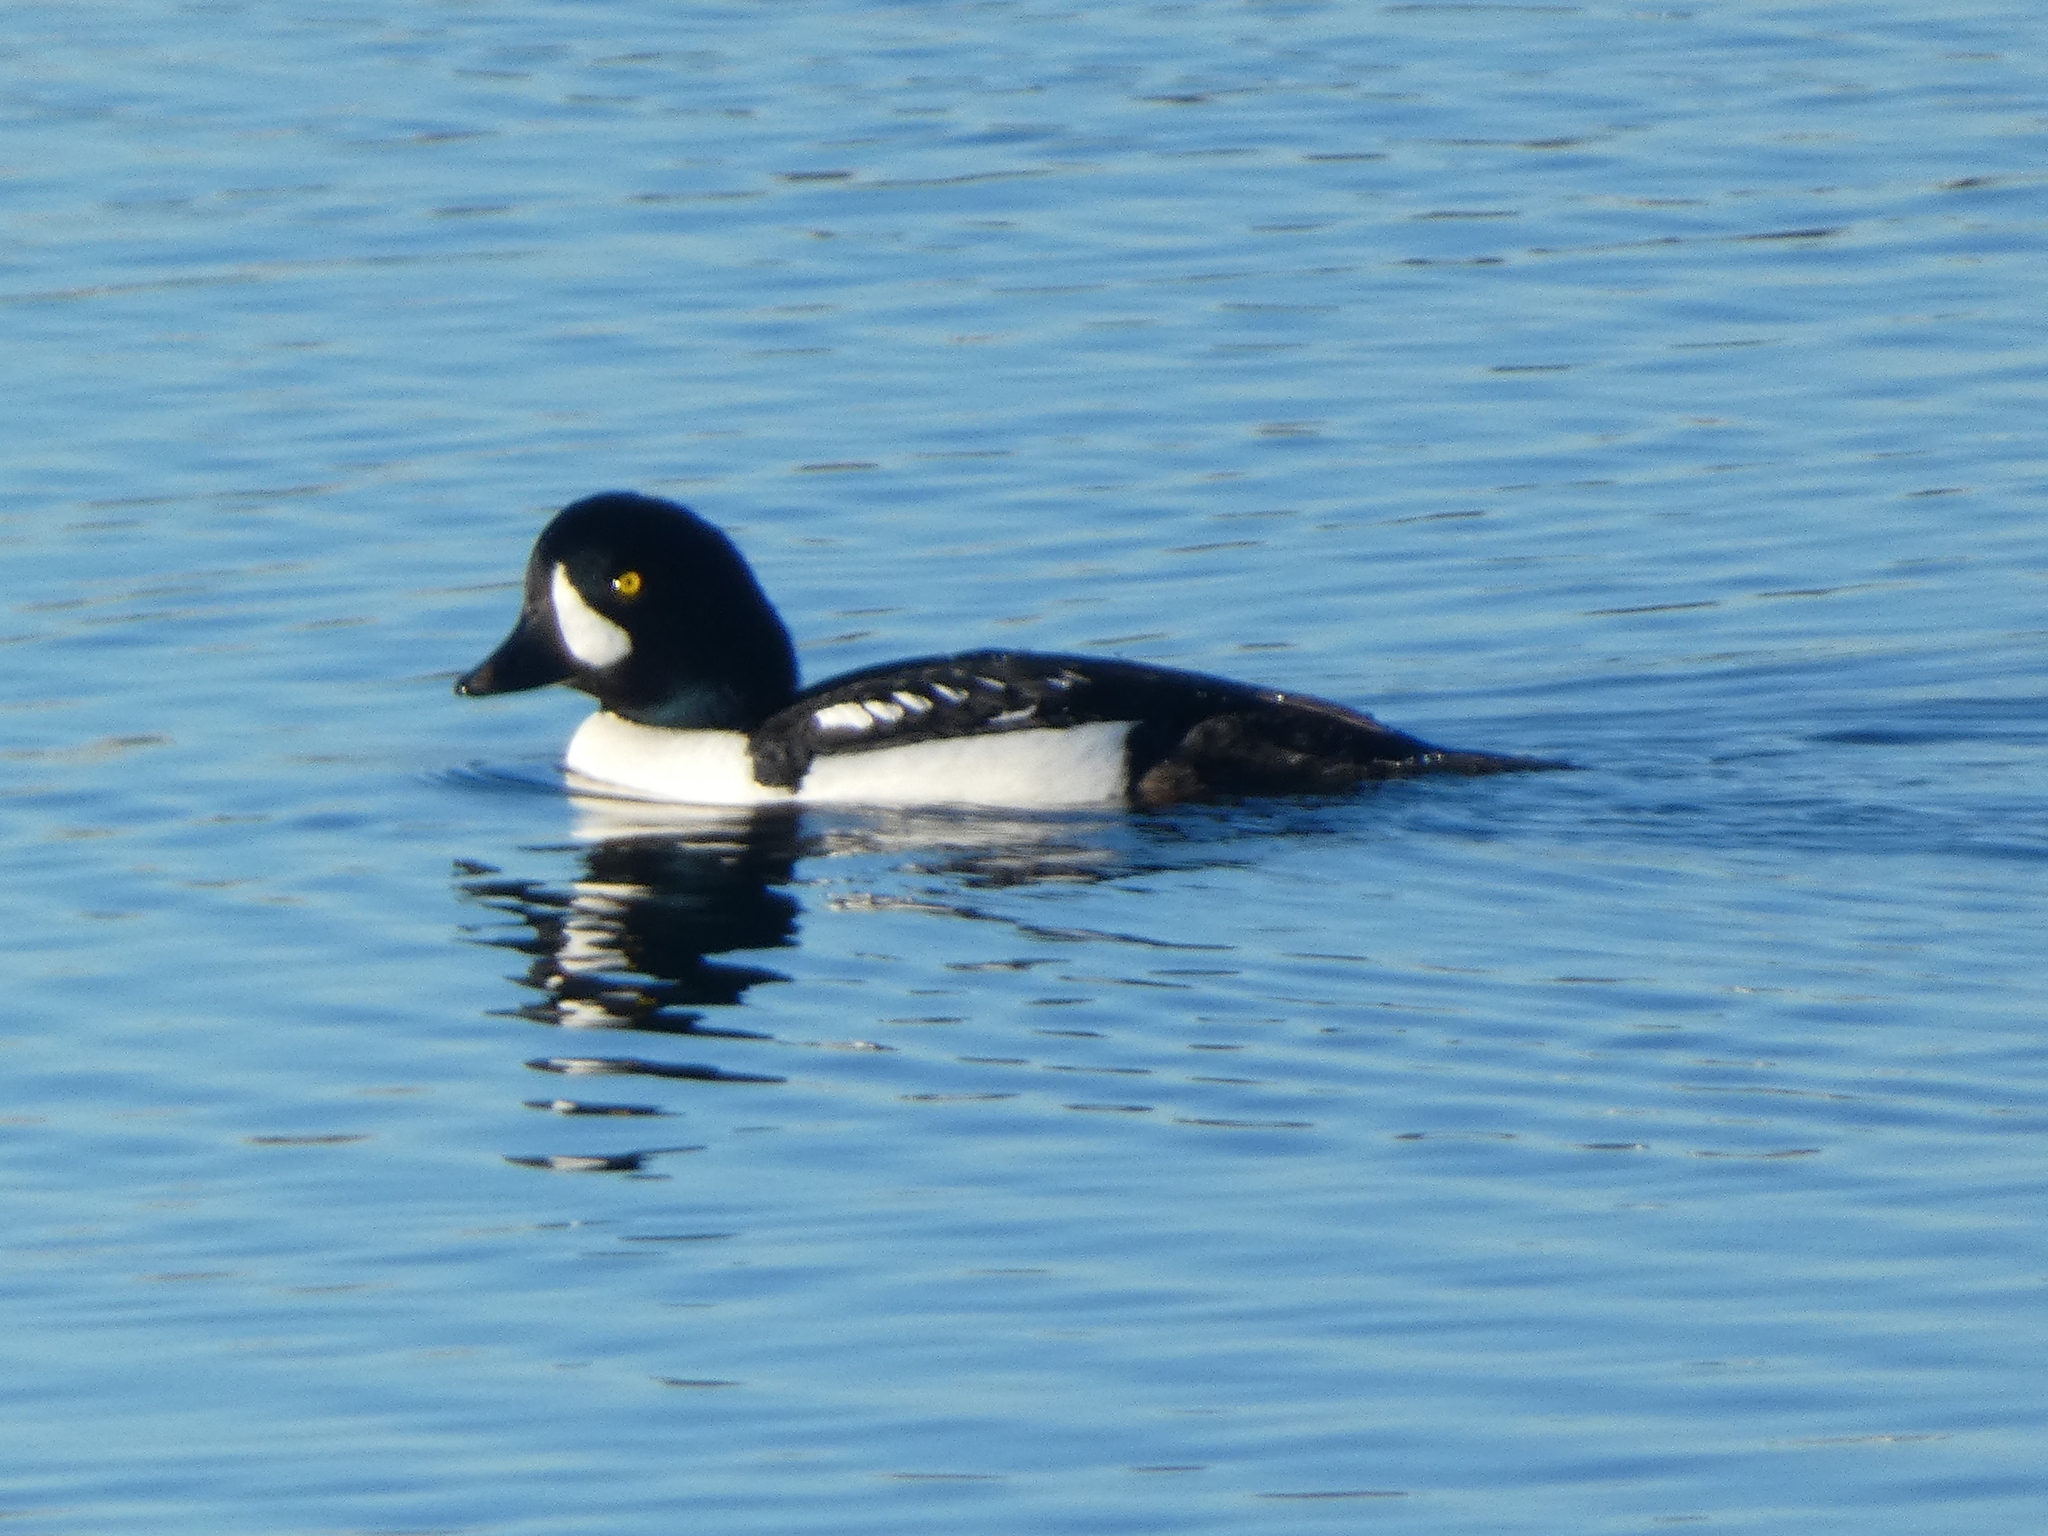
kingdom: Animalia
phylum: Chordata
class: Aves
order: Anseriformes
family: Anatidae
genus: Bucephala
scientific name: Bucephala islandica
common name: Barrow's goldeneye
